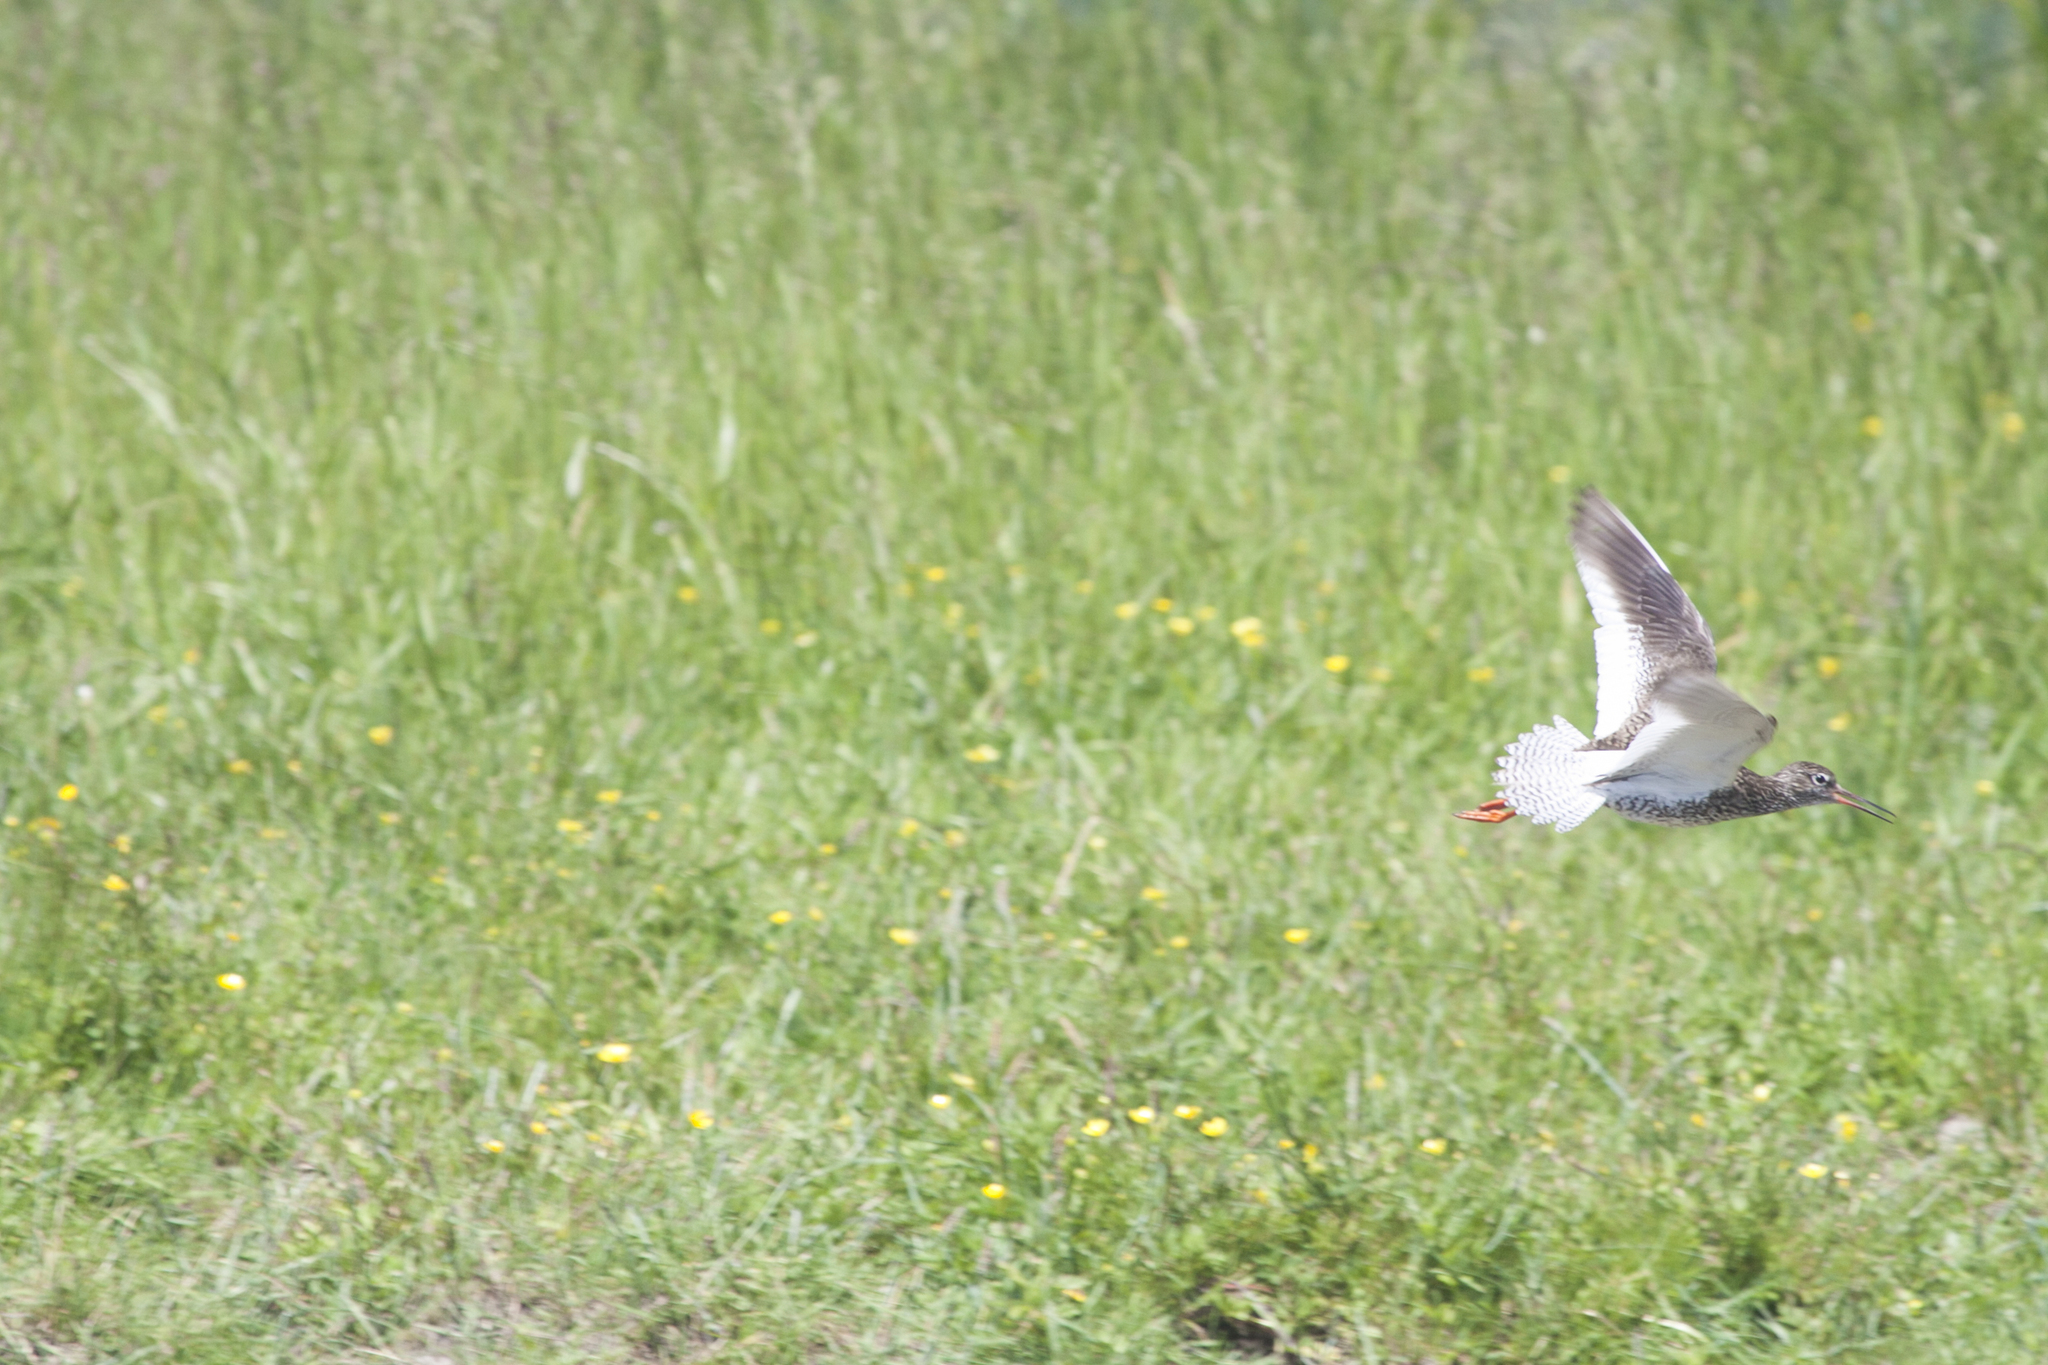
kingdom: Animalia
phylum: Chordata
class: Aves
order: Charadriiformes
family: Scolopacidae
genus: Tringa
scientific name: Tringa totanus
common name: Common redshank
